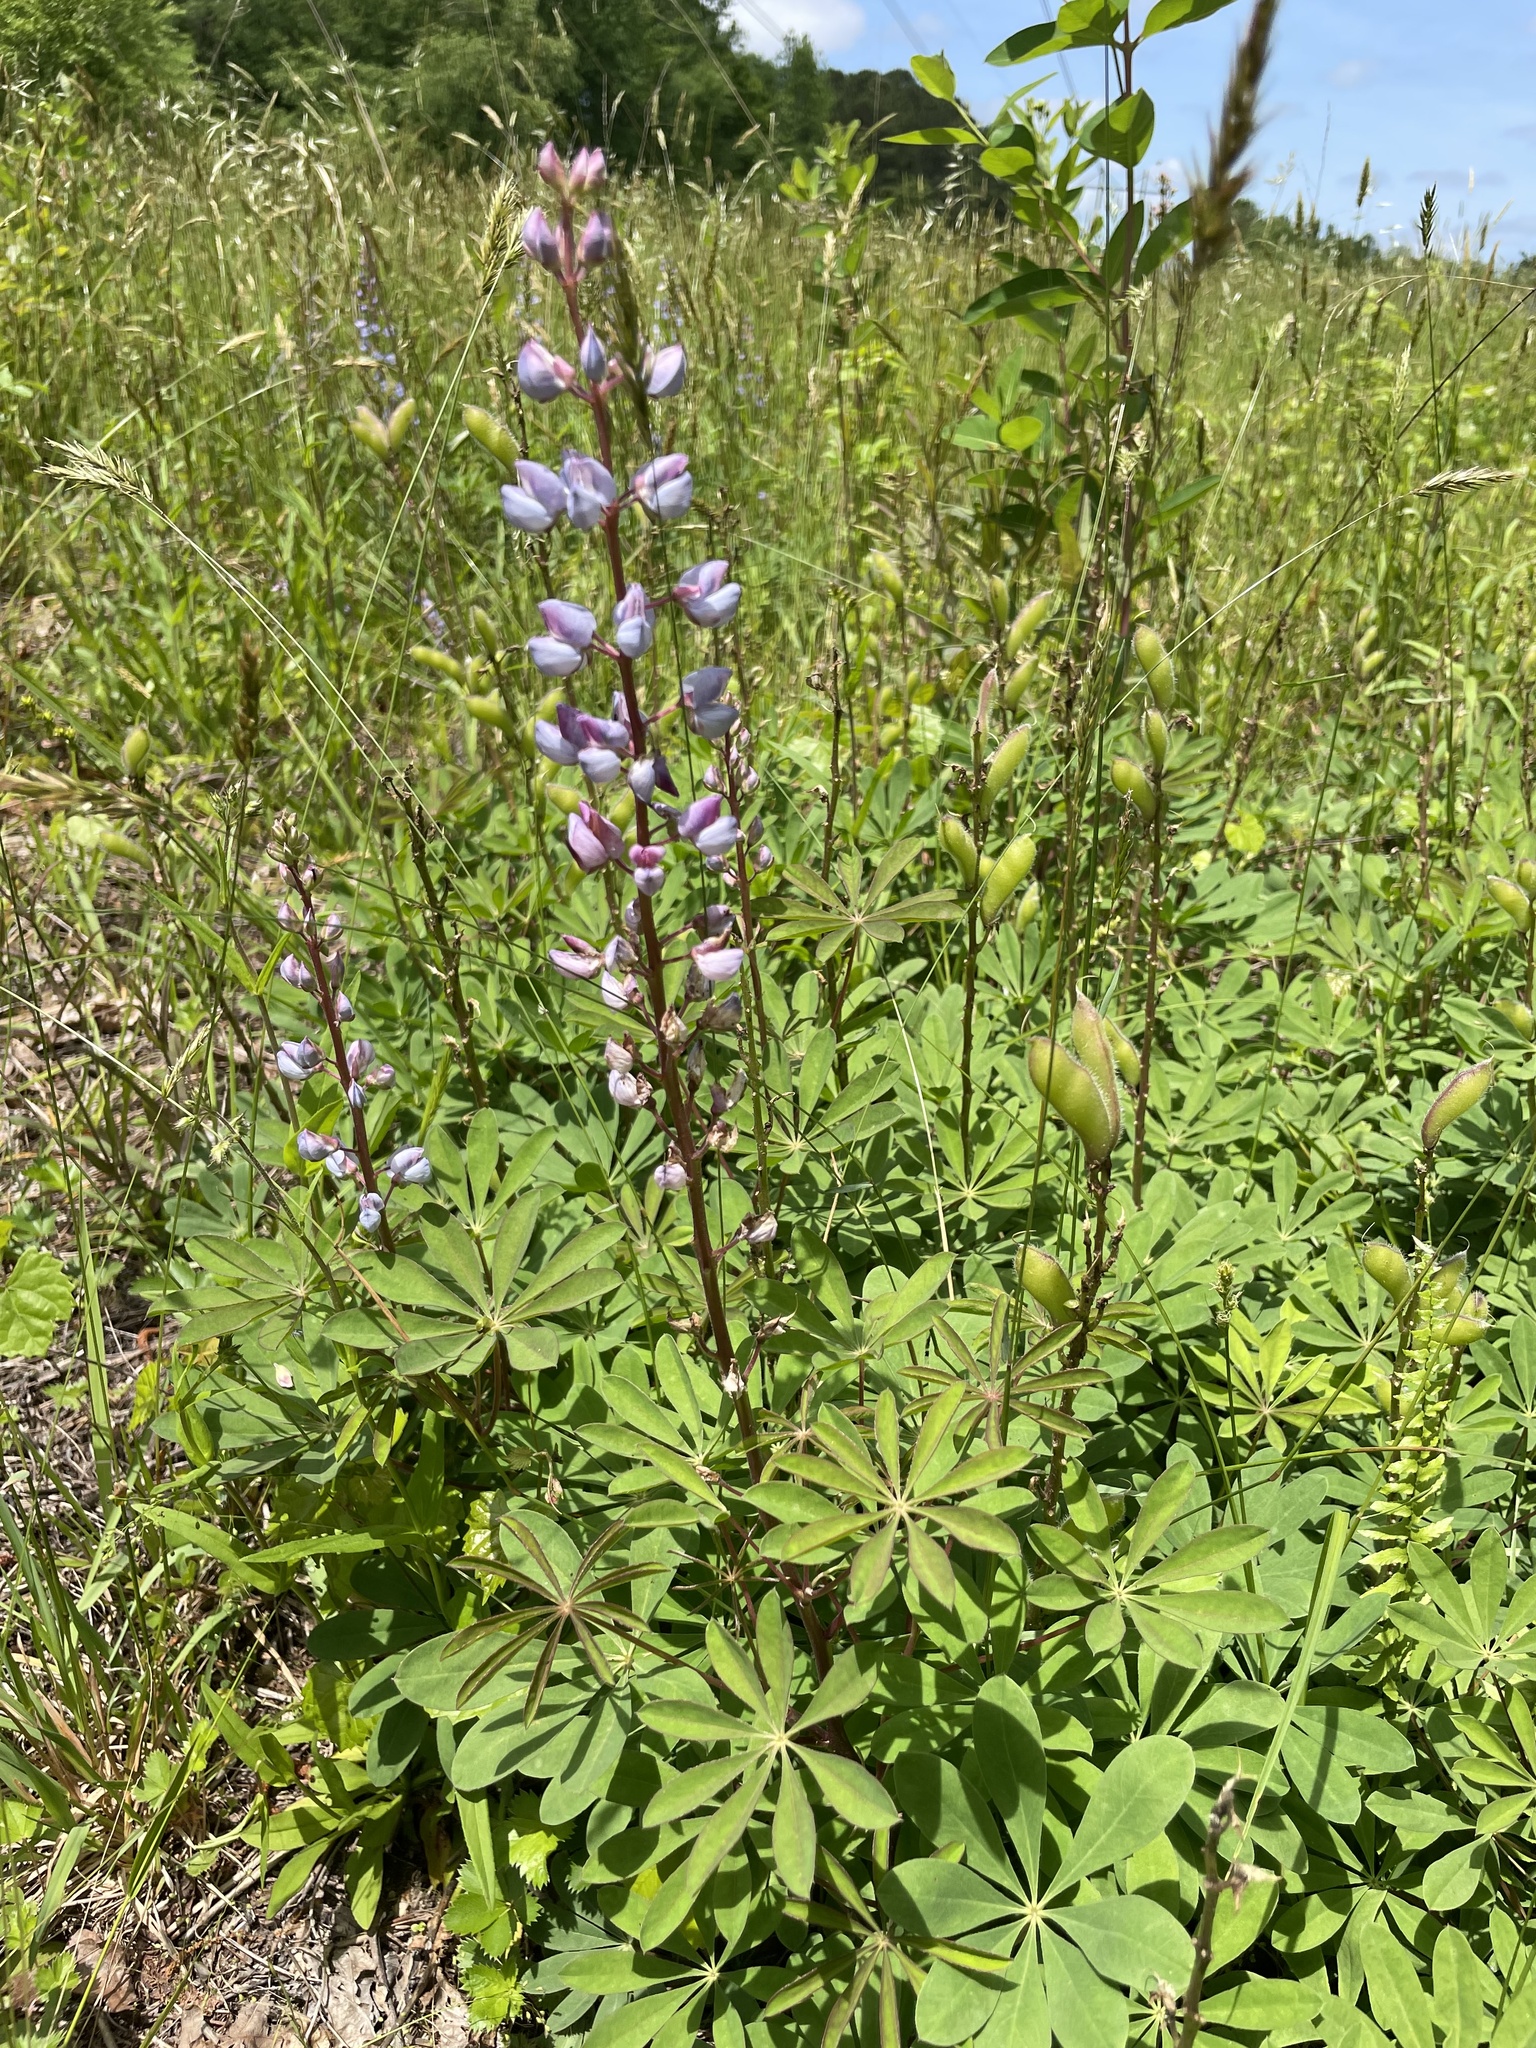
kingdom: Plantae
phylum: Tracheophyta
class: Magnoliopsida
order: Fabales
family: Fabaceae
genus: Lupinus
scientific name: Lupinus perennis
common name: Sundial lupine
